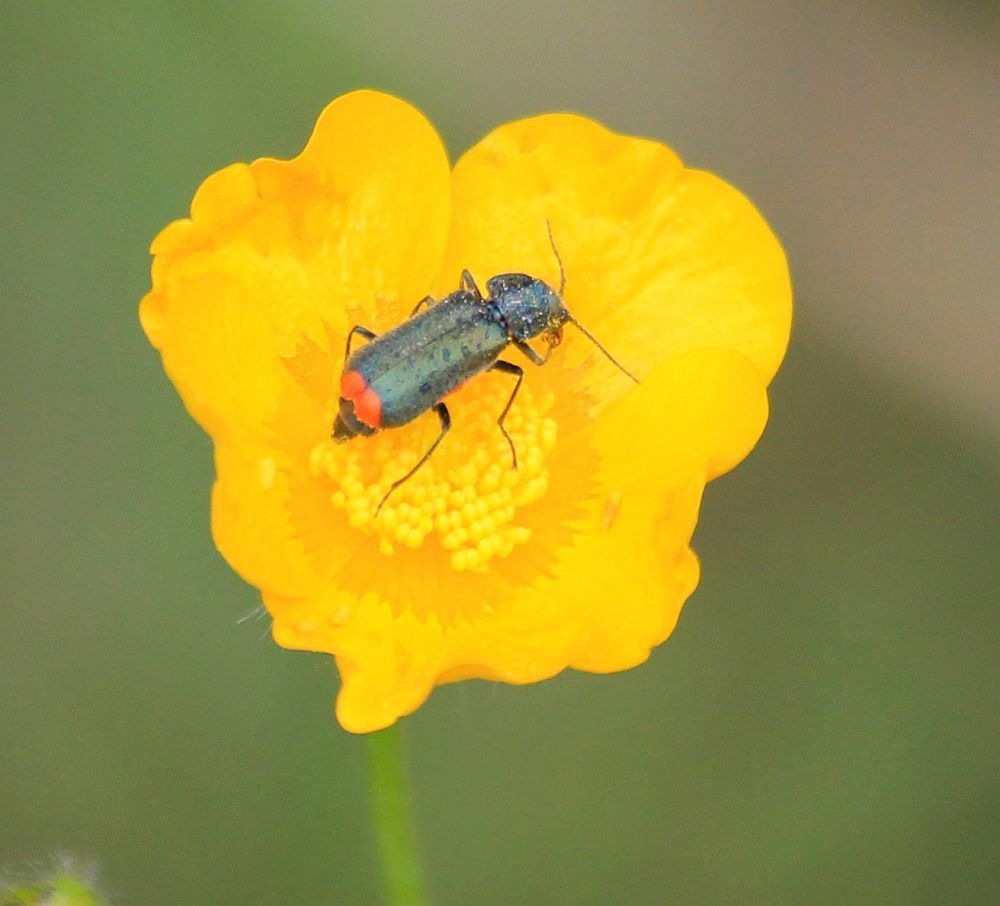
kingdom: Animalia
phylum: Arthropoda
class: Insecta
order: Coleoptera
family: Melyridae
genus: Malachius
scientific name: Malachius bipustulatus
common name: Malachite beetle
